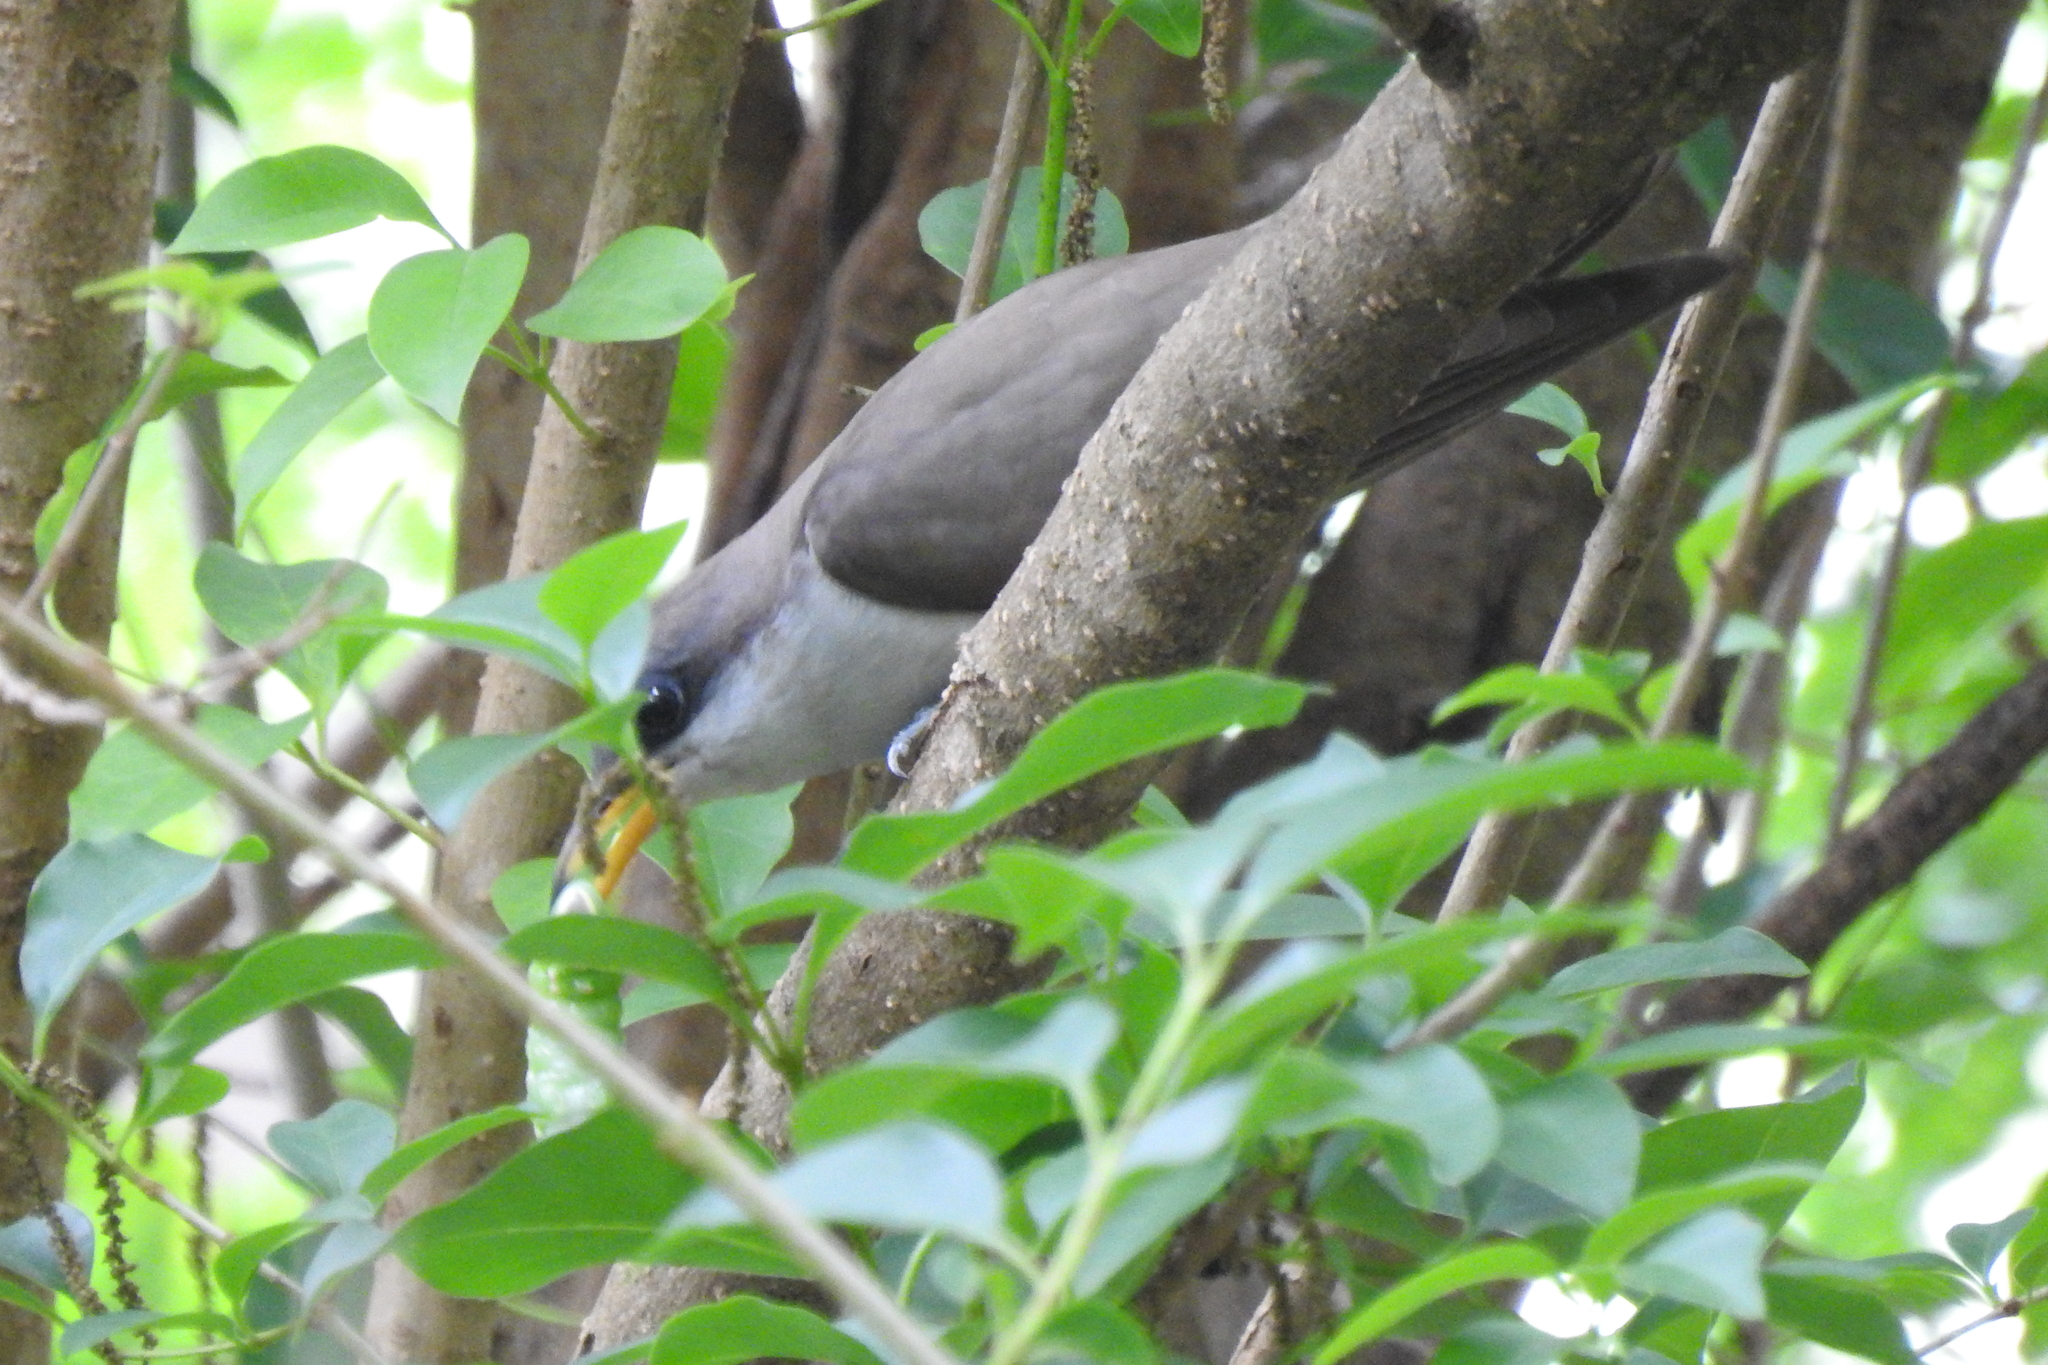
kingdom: Animalia
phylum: Chordata
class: Aves
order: Cuculiformes
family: Cuculidae
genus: Coccyzus
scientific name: Coccyzus americanus
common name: Yellow-billed cuckoo
